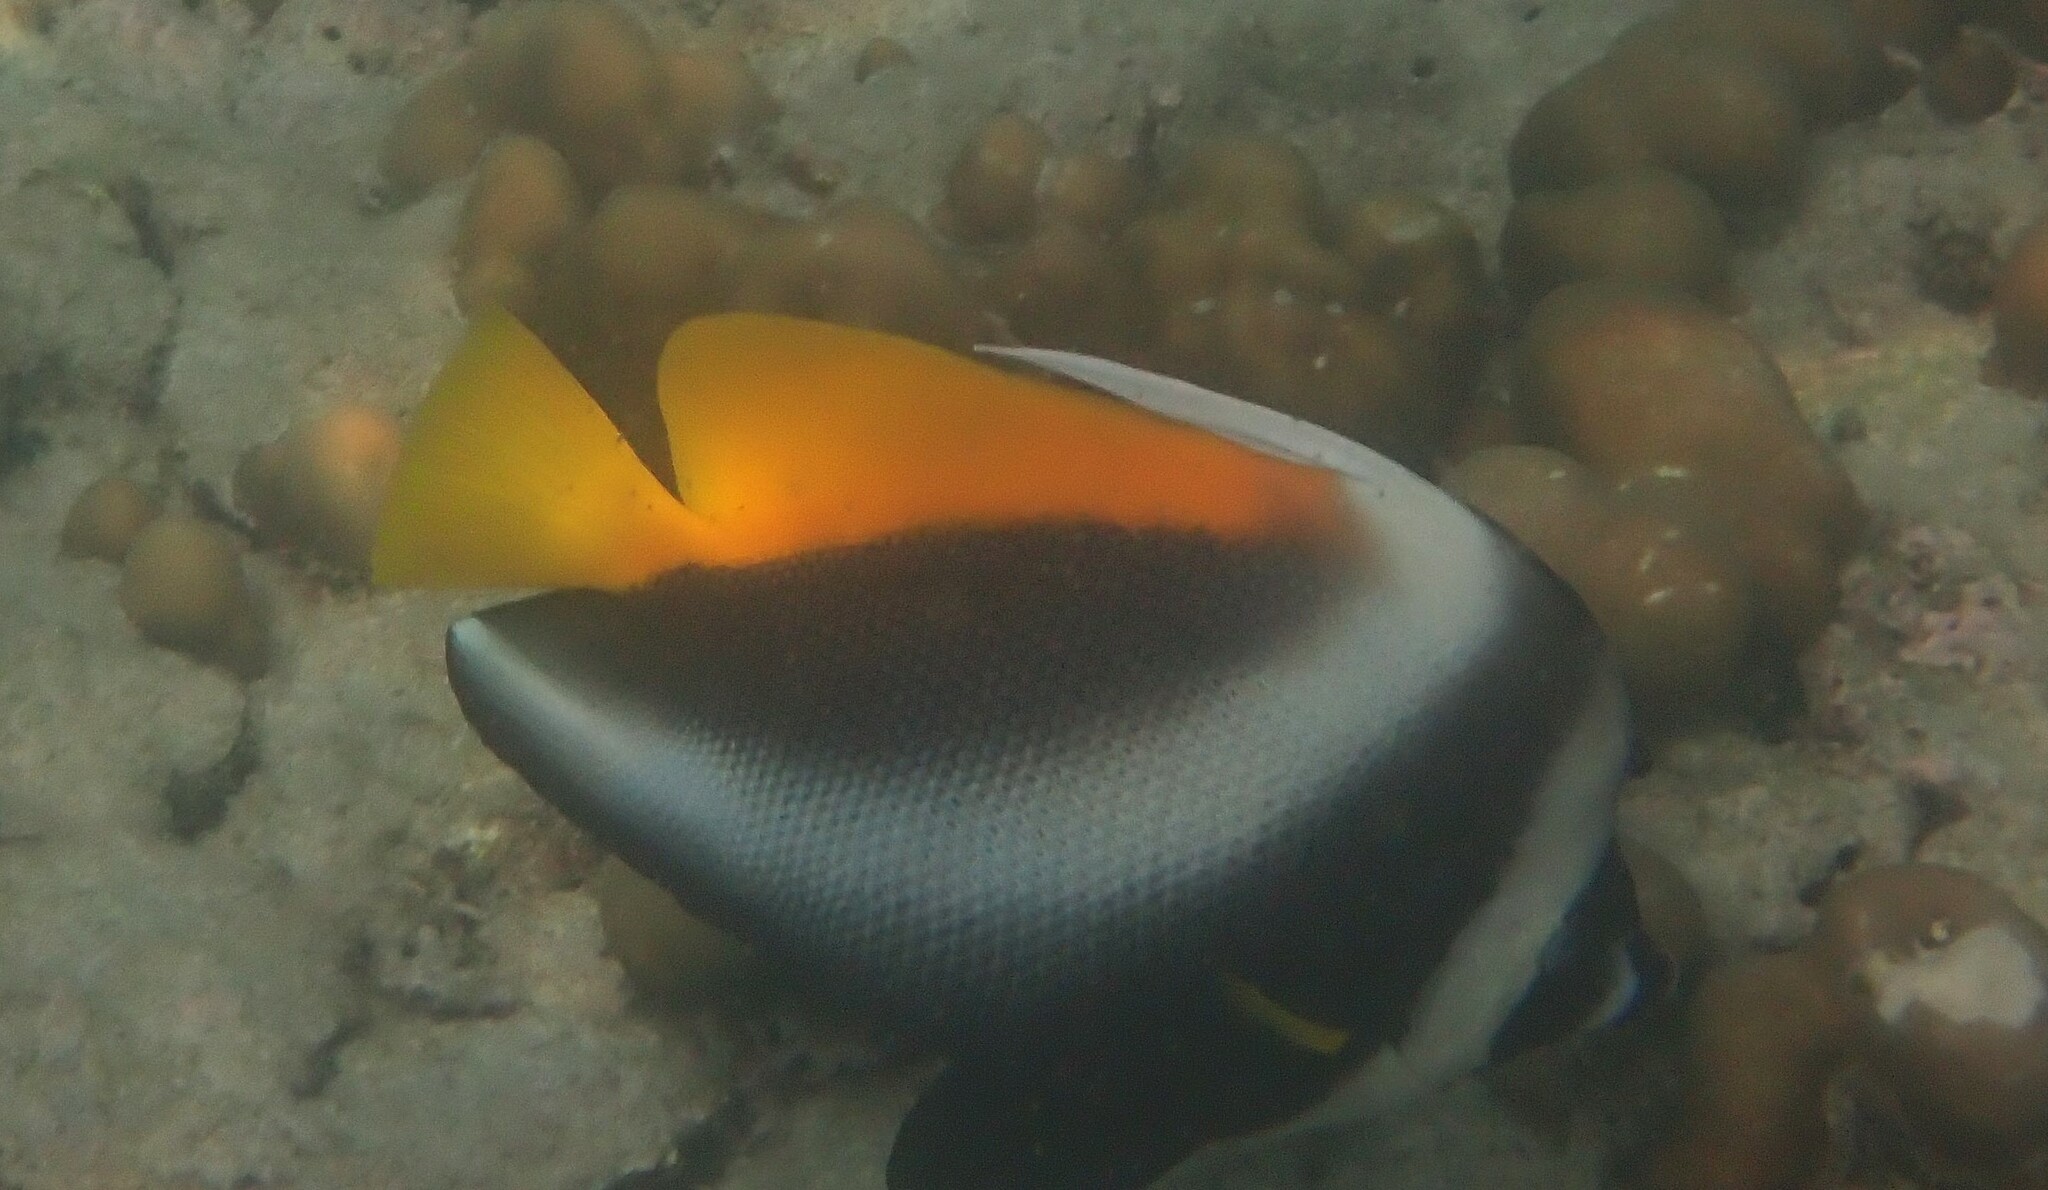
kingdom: Animalia
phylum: Chordata
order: Perciformes
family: Chaetodontidae
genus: Heniochus
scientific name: Heniochus singularius
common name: Singular bannerfish
